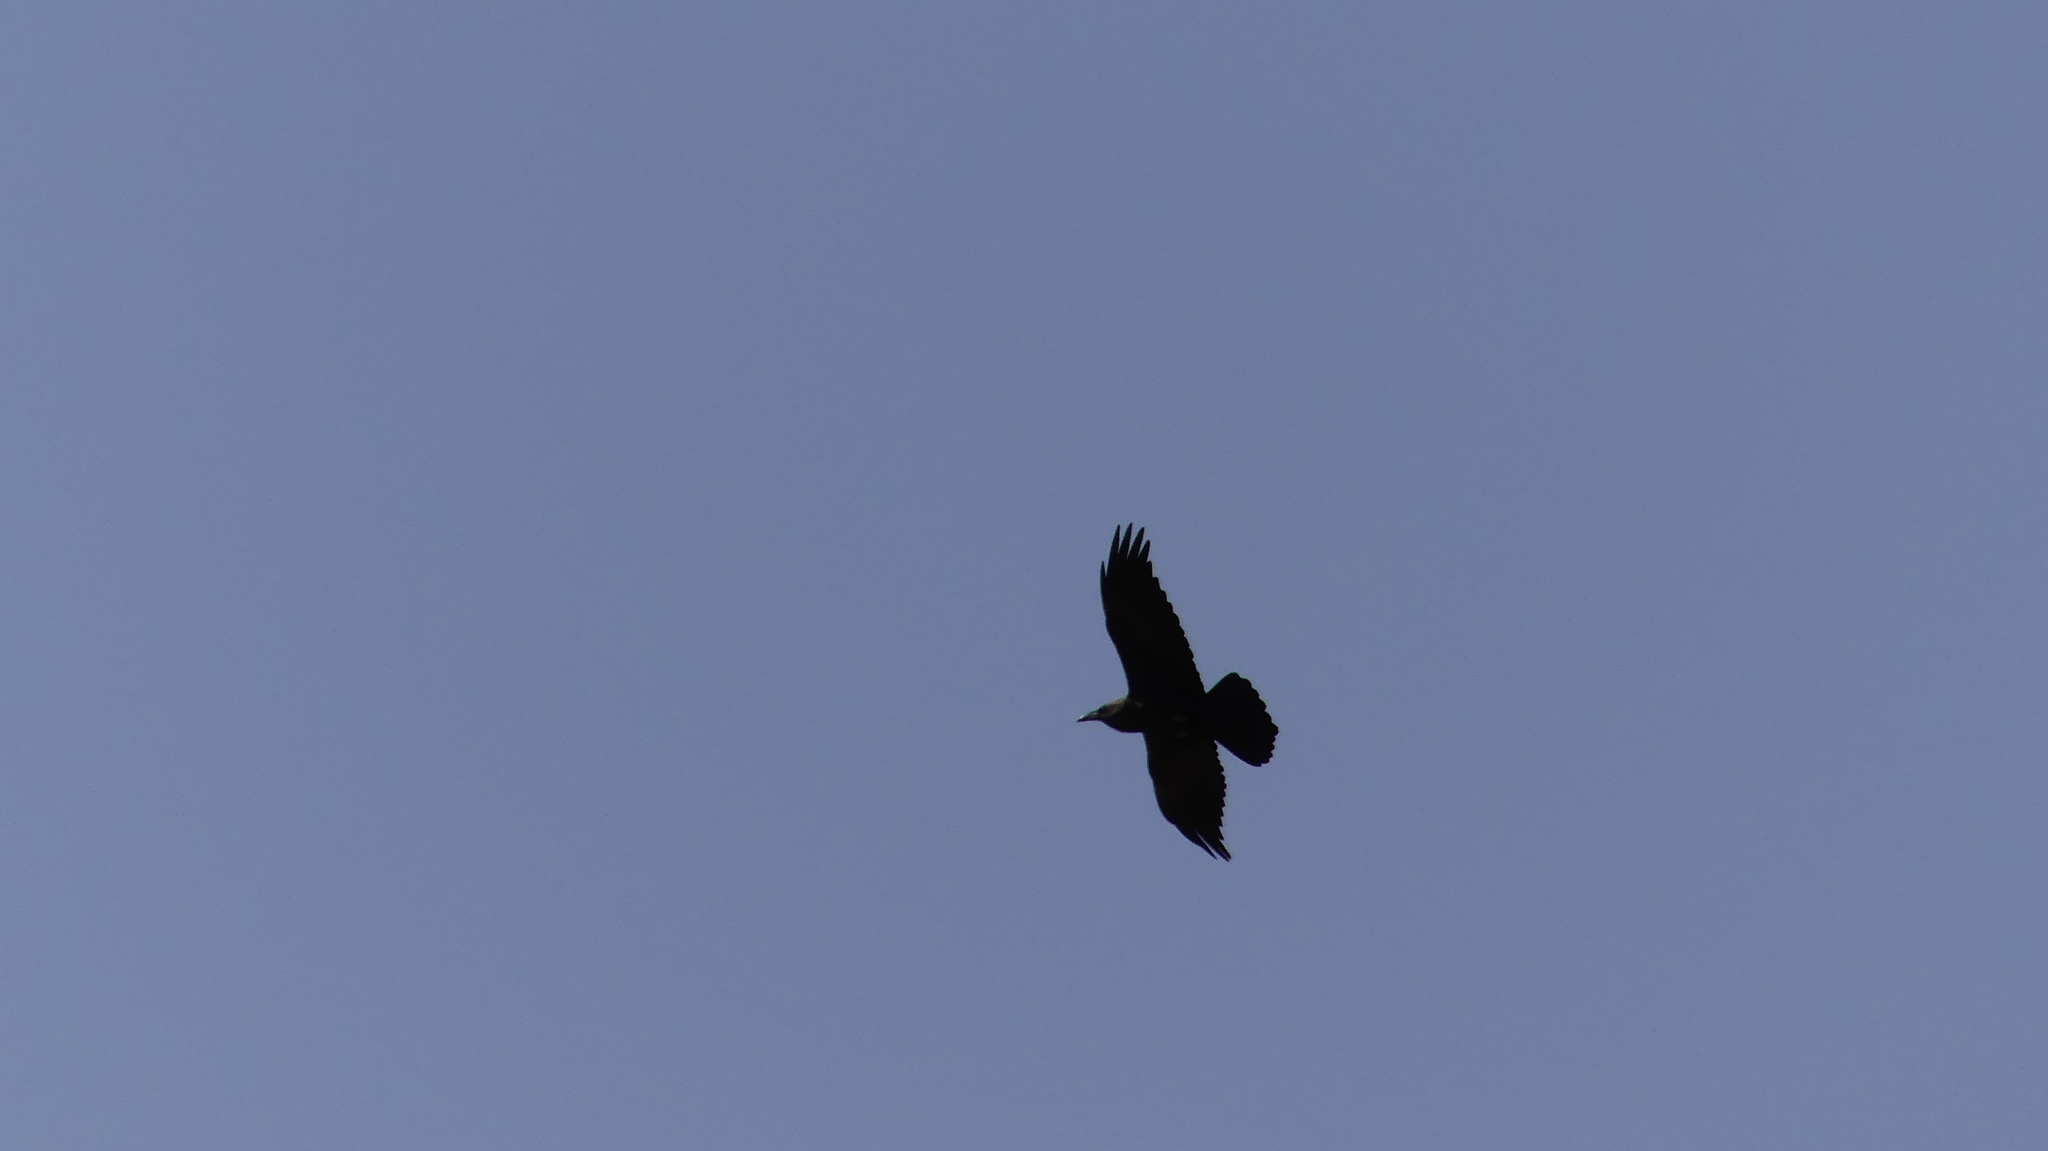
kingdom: Animalia
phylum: Chordata
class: Aves
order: Passeriformes
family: Corvidae
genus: Corvus
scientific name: Corvus ruficollis
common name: Brown-necked raven
